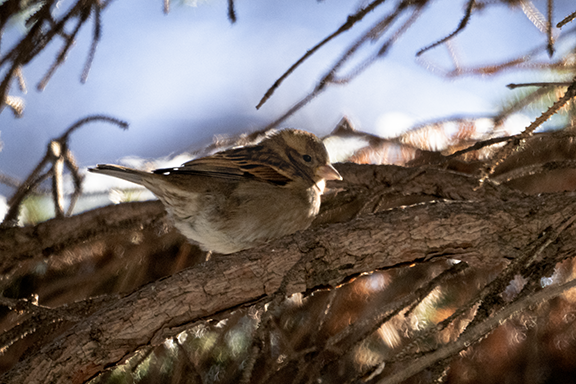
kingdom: Animalia
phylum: Chordata
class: Aves
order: Passeriformes
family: Passeridae
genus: Passer
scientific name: Passer domesticus
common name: House sparrow
